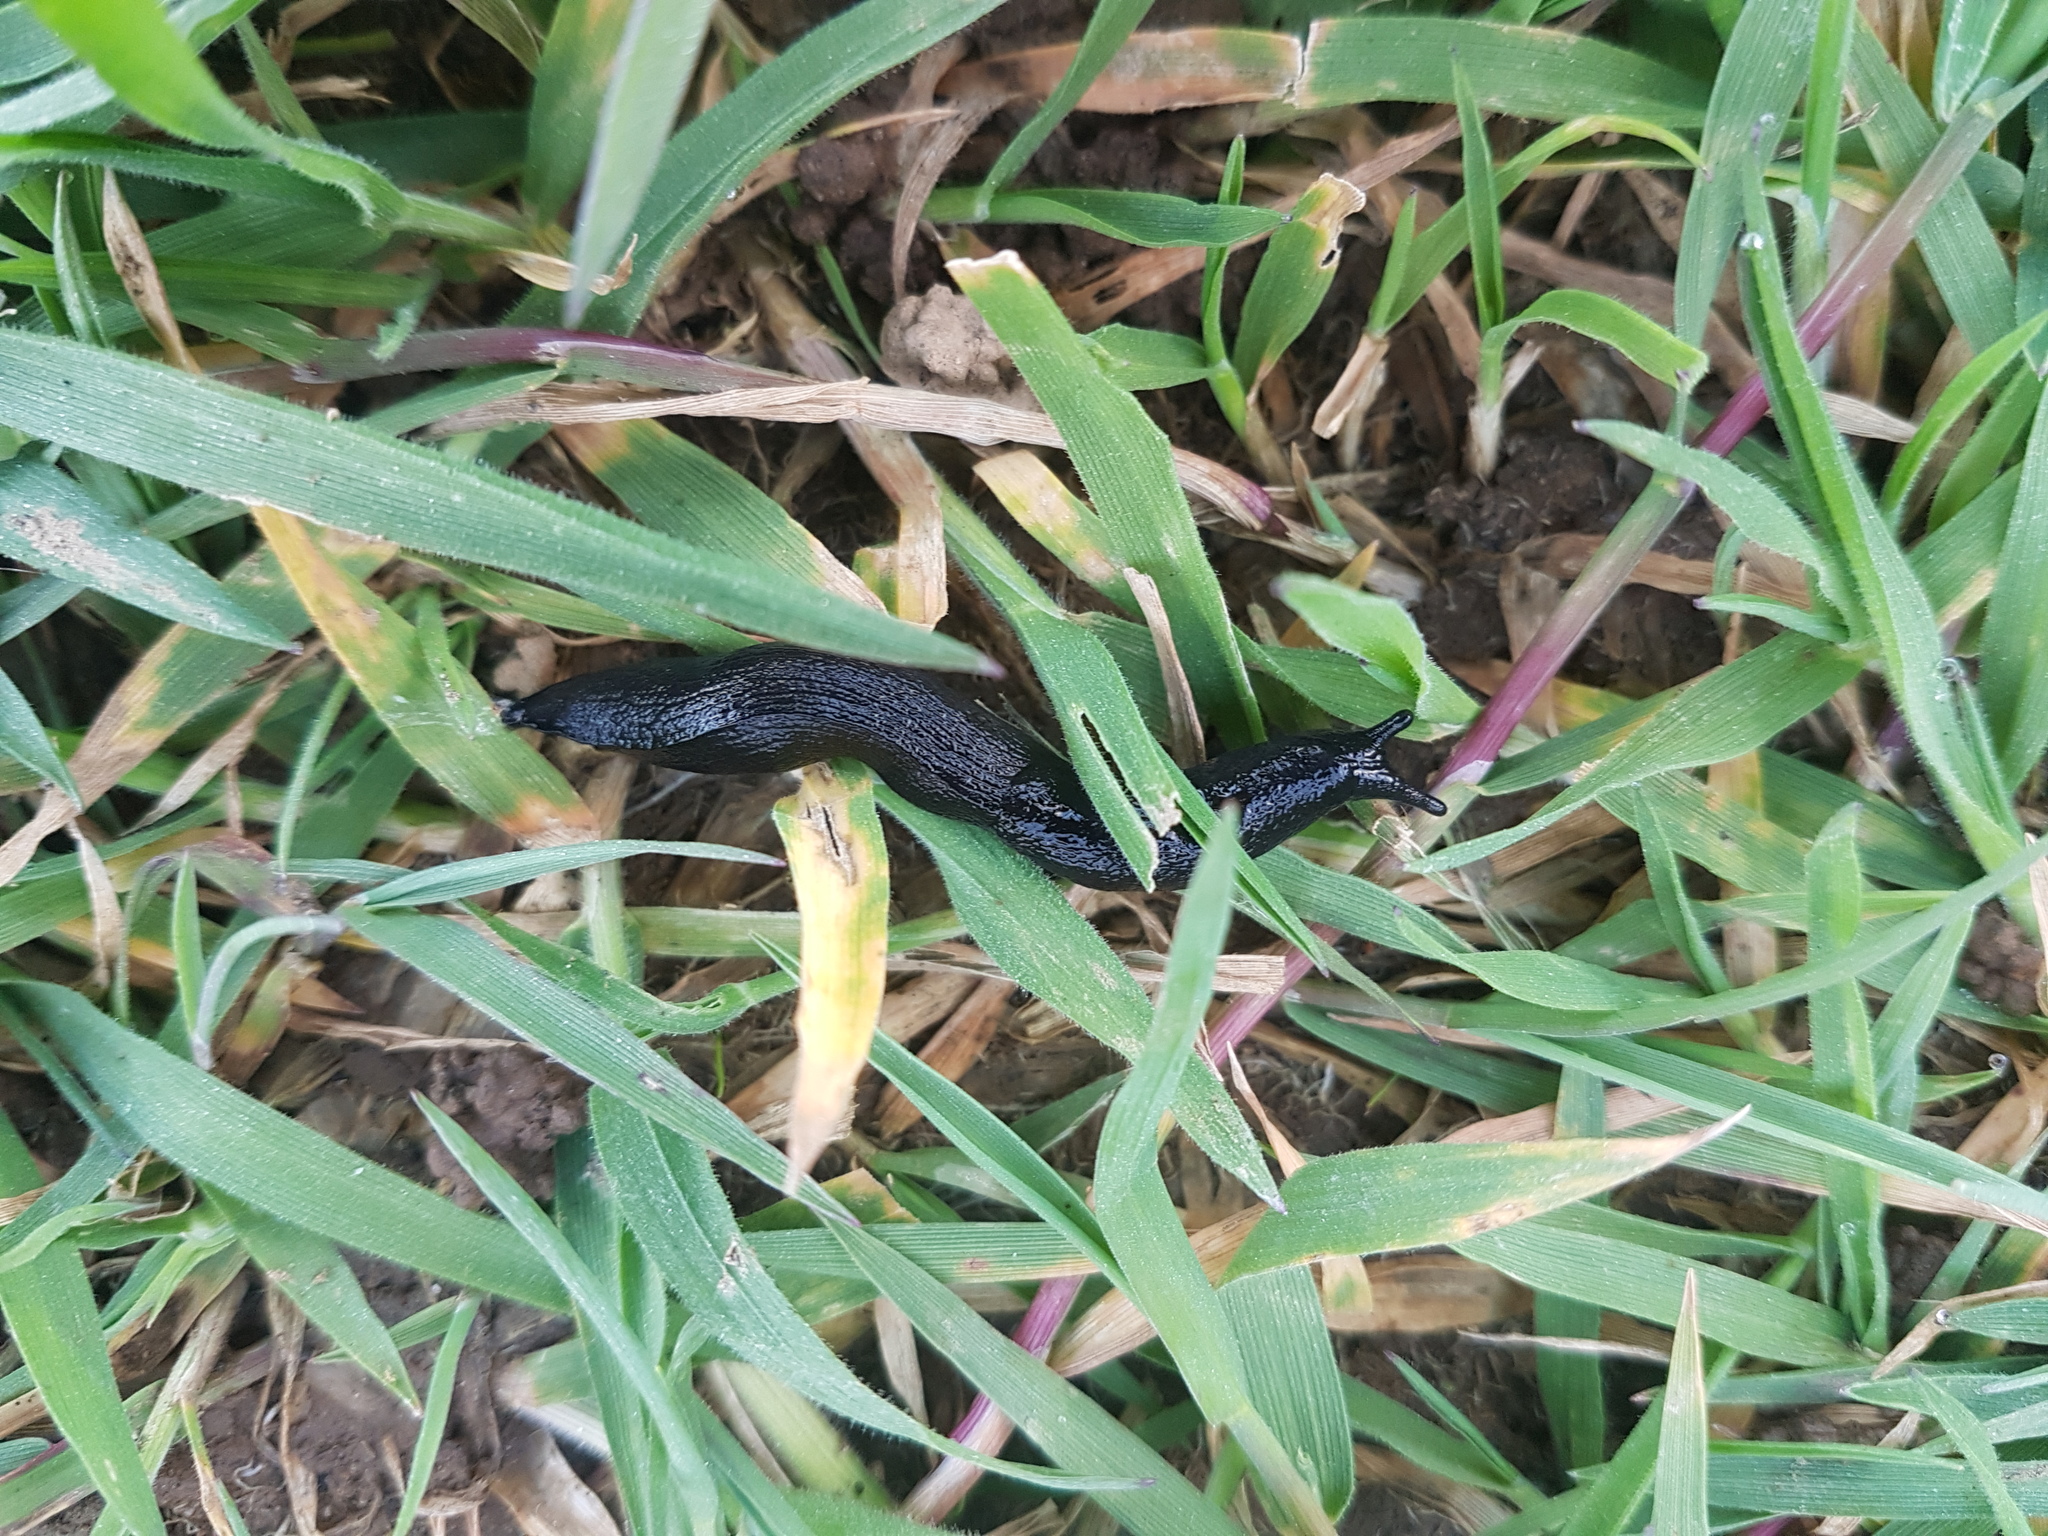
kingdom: Animalia
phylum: Mollusca
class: Gastropoda
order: Stylommatophora
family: Milacidae
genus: Milax
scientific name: Milax gagates
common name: Greenhouse slug
